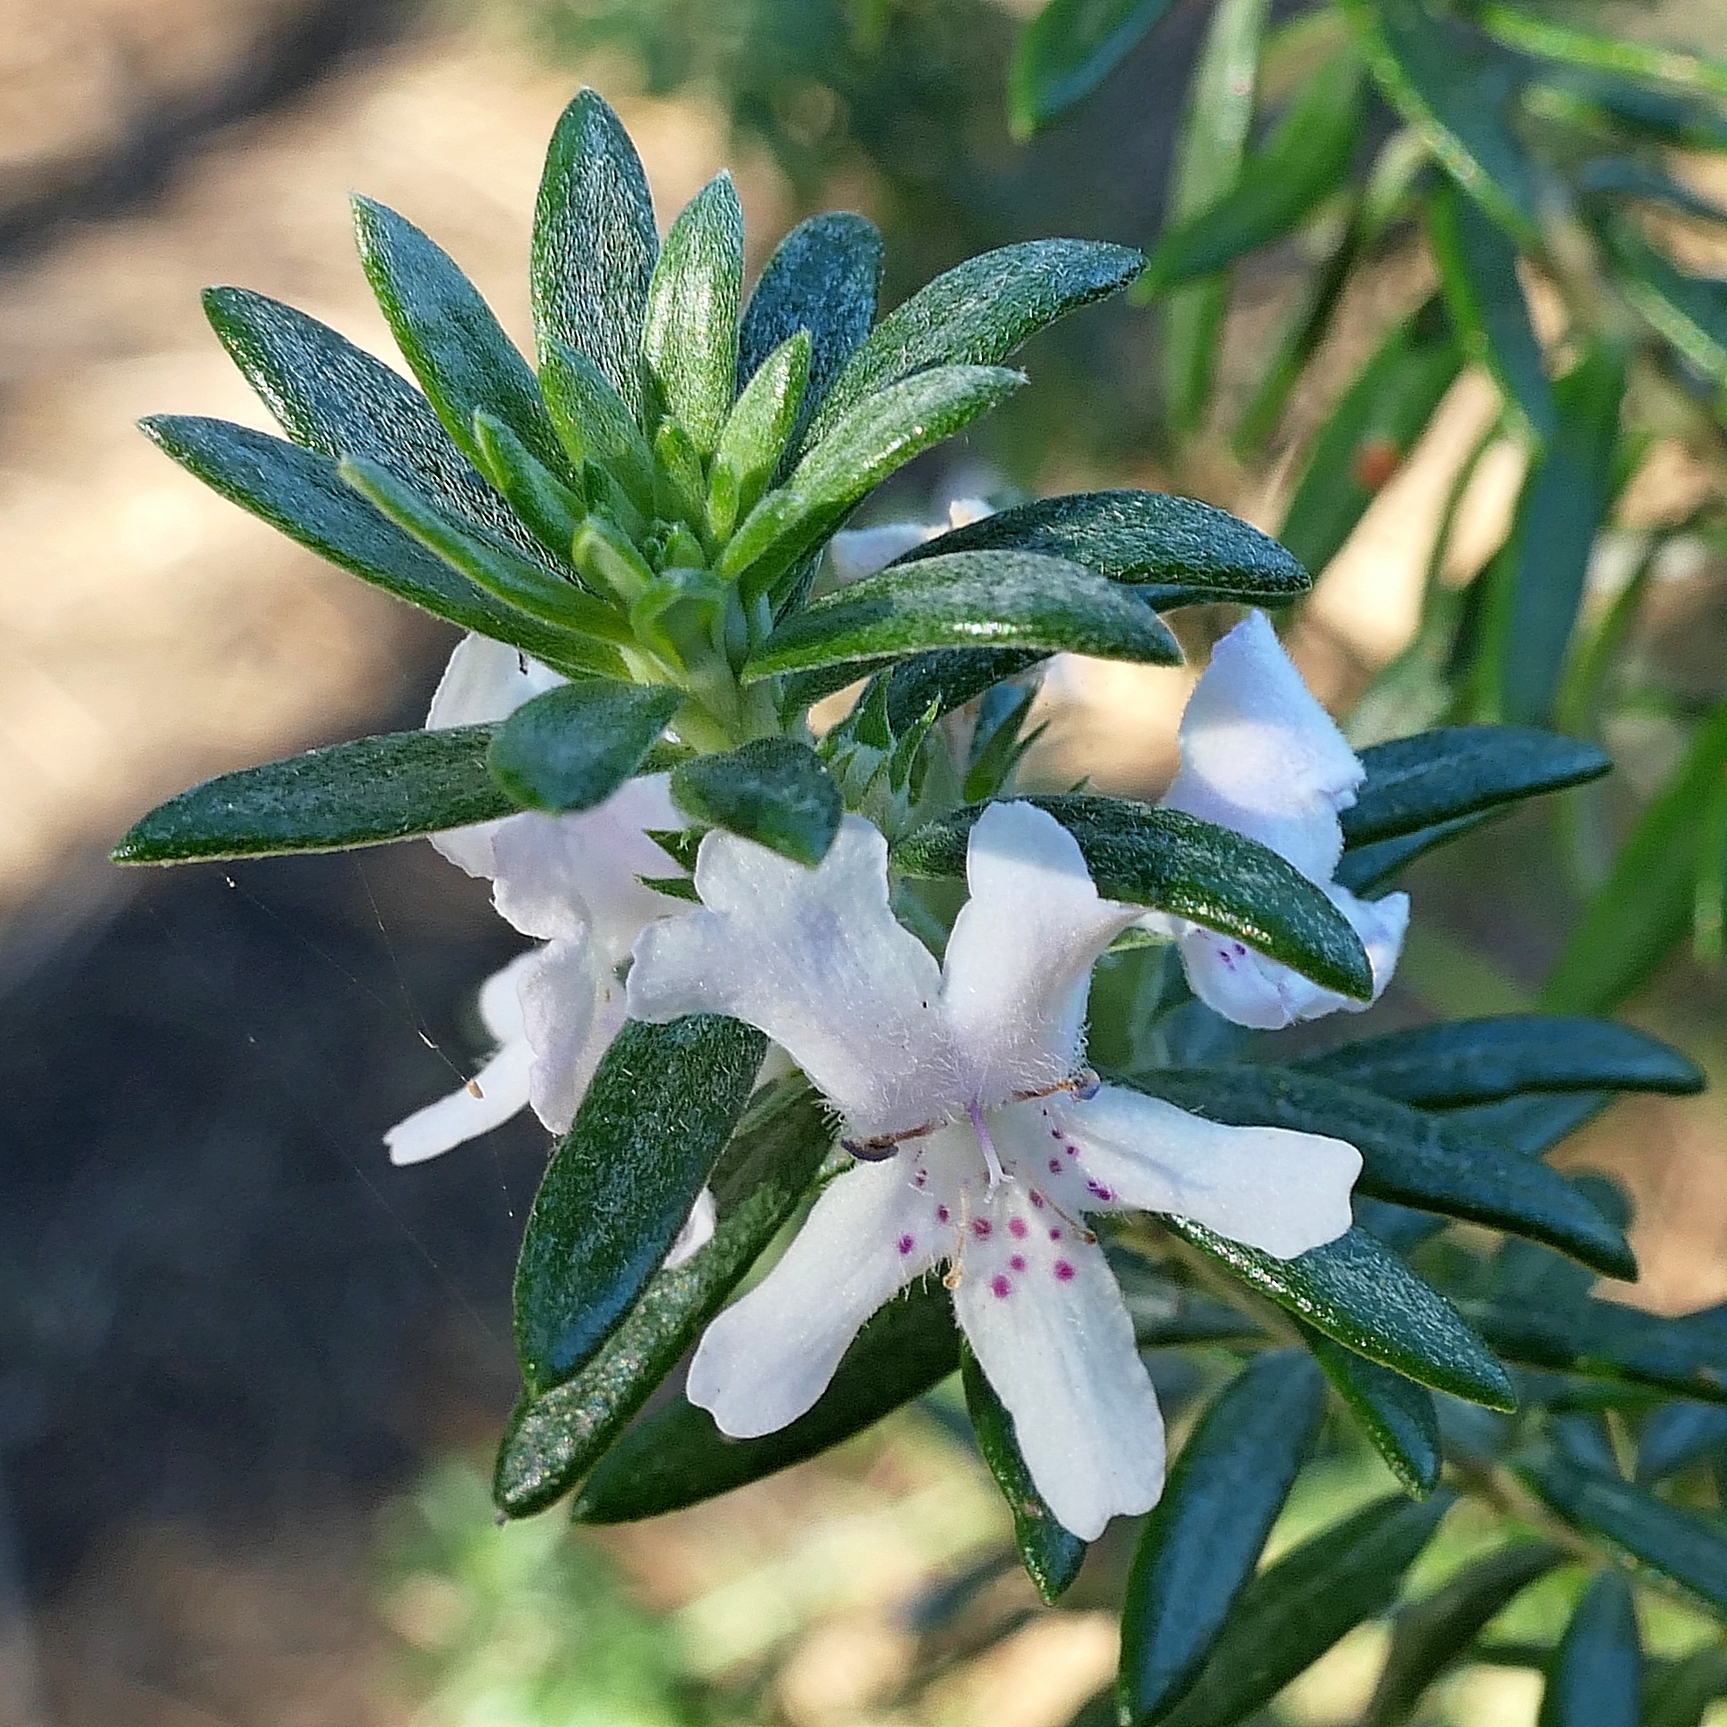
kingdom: Plantae
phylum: Tracheophyta
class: Magnoliopsida
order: Lamiales
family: Lamiaceae
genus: Westringia
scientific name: Westringia fruticosa
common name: Coastal-rosemary
